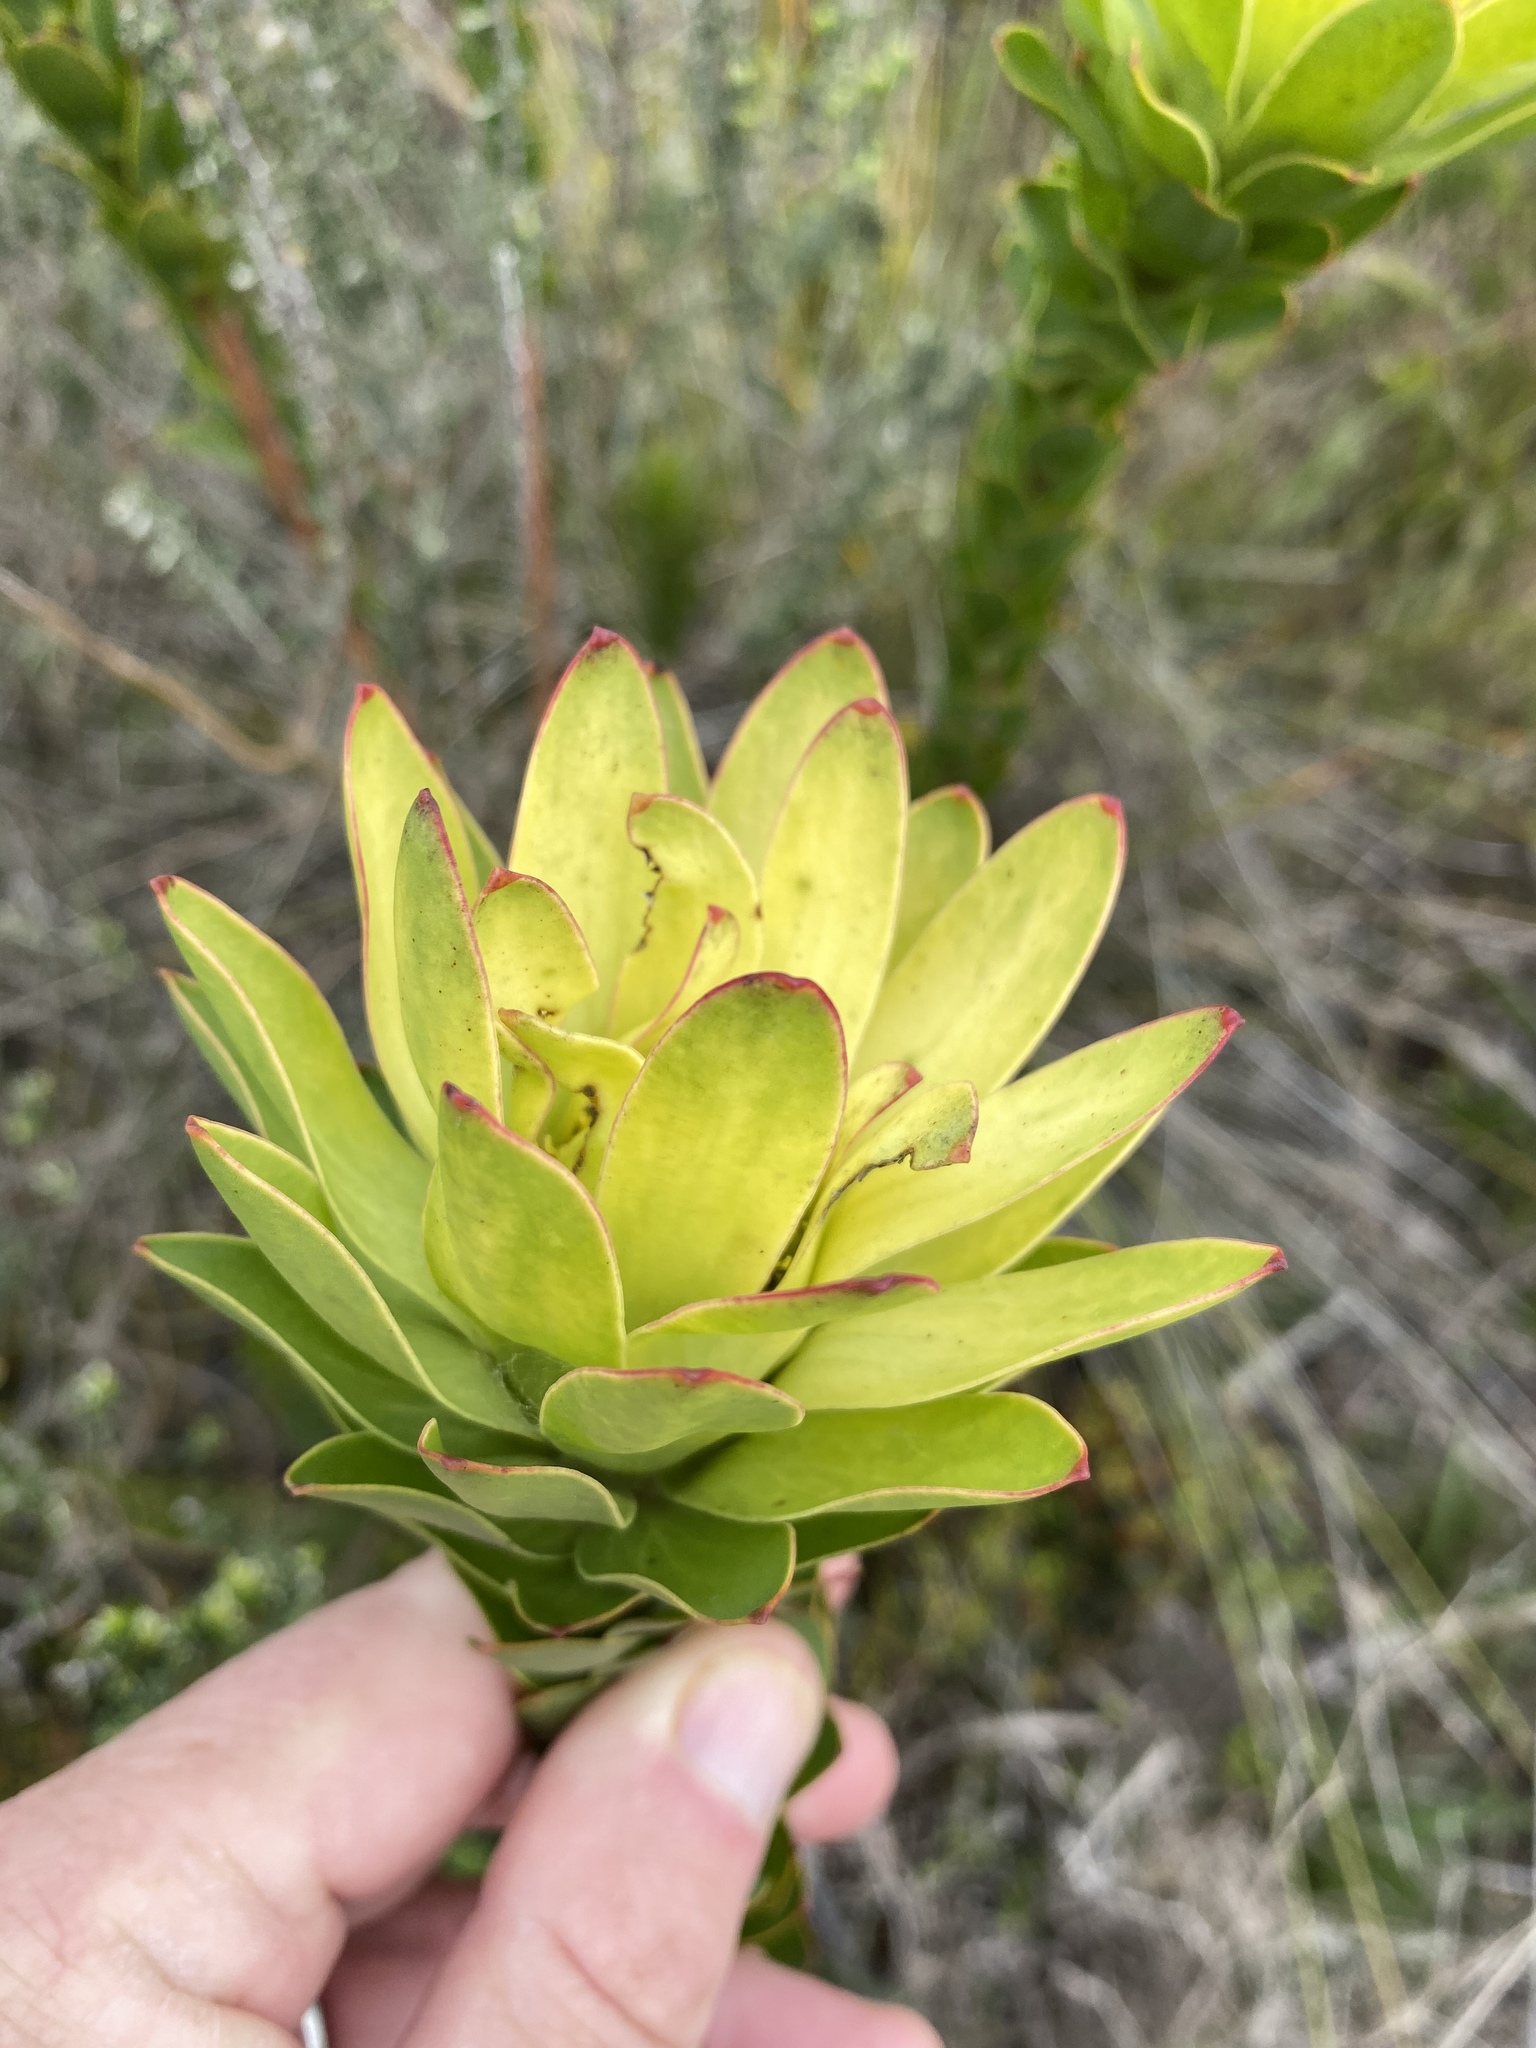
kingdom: Plantae
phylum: Tracheophyta
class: Magnoliopsida
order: Proteales
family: Proteaceae
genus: Leucadendron
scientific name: Leucadendron elimense
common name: Elim conebush
